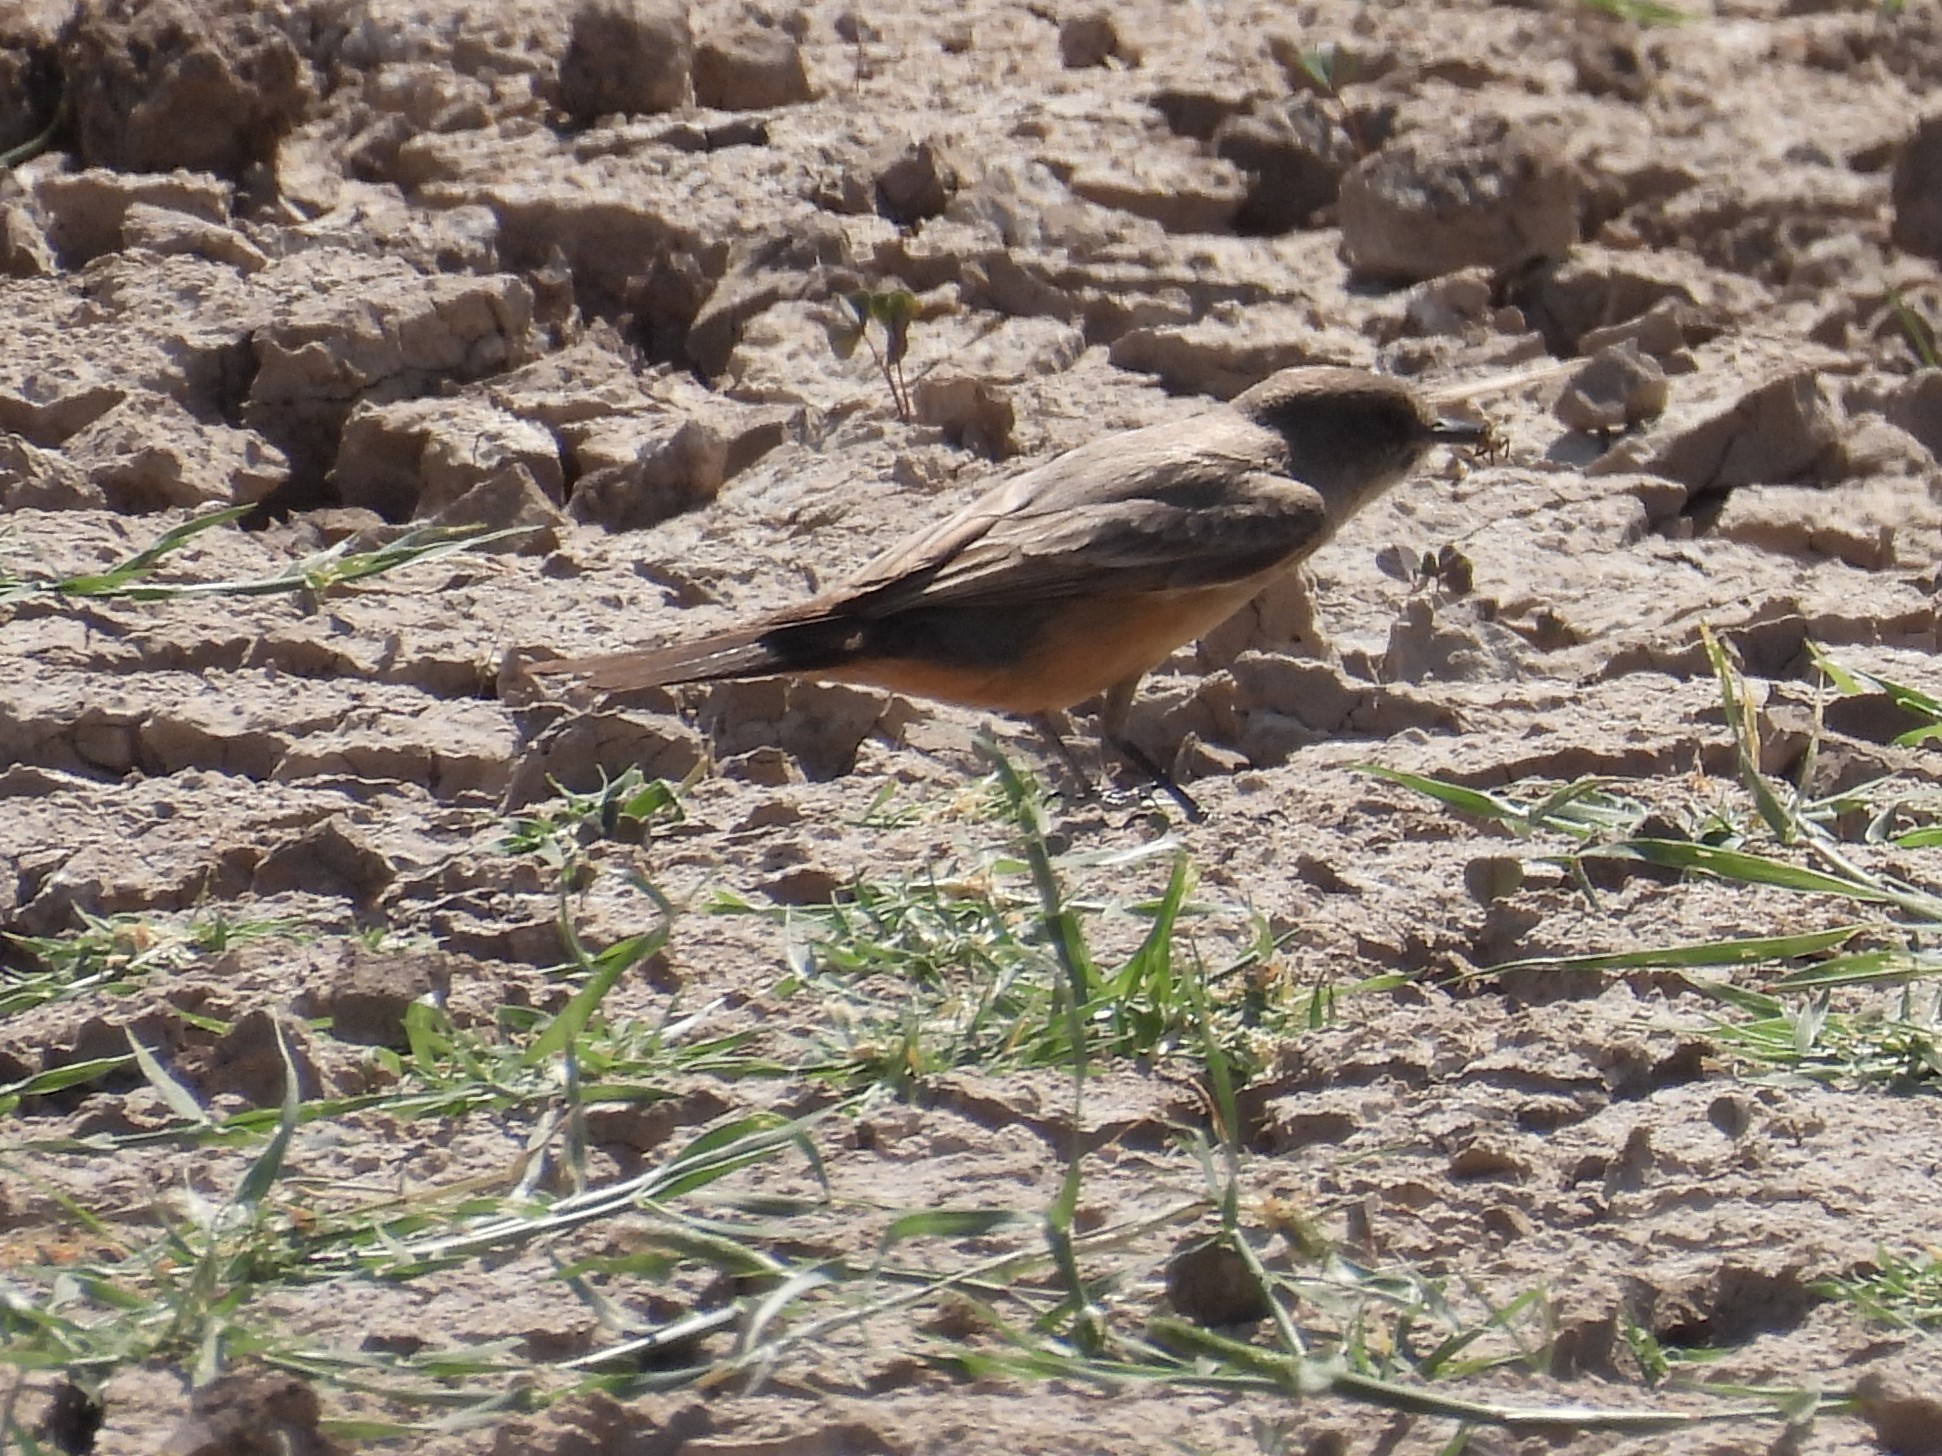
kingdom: Animalia
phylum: Chordata
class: Aves
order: Passeriformes
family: Tyrannidae
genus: Sayornis
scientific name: Sayornis saya
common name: Say's phoebe
